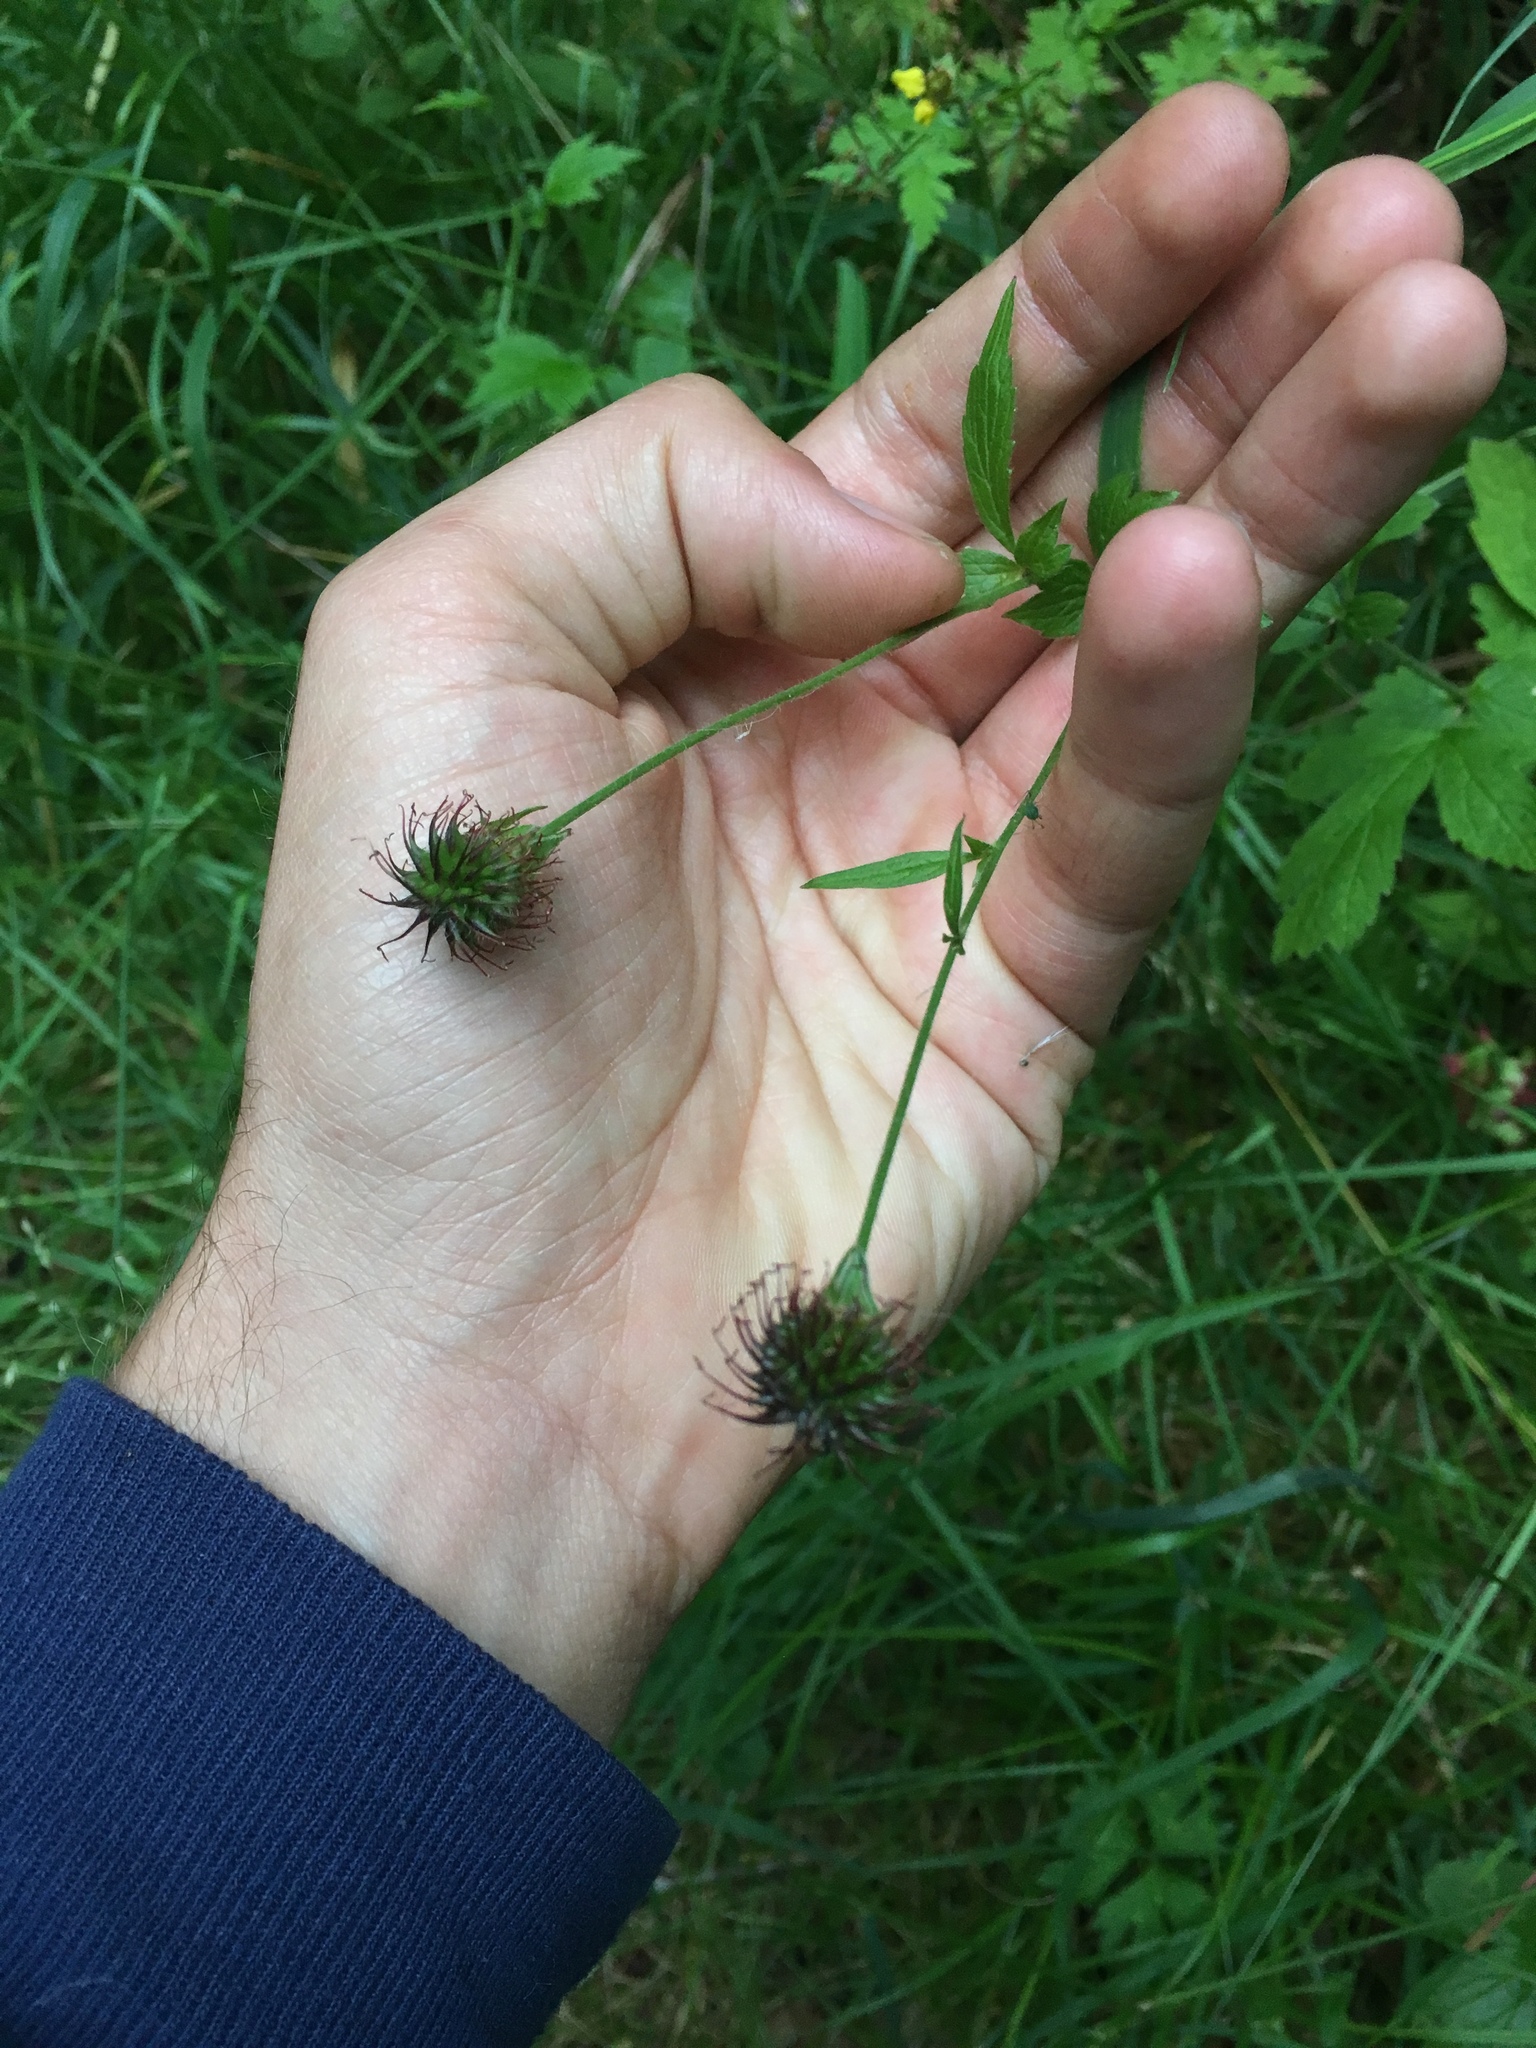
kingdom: Plantae
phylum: Tracheophyta
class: Magnoliopsida
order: Rosales
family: Rosaceae
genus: Geum
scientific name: Geum urbanum
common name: Wood avens
